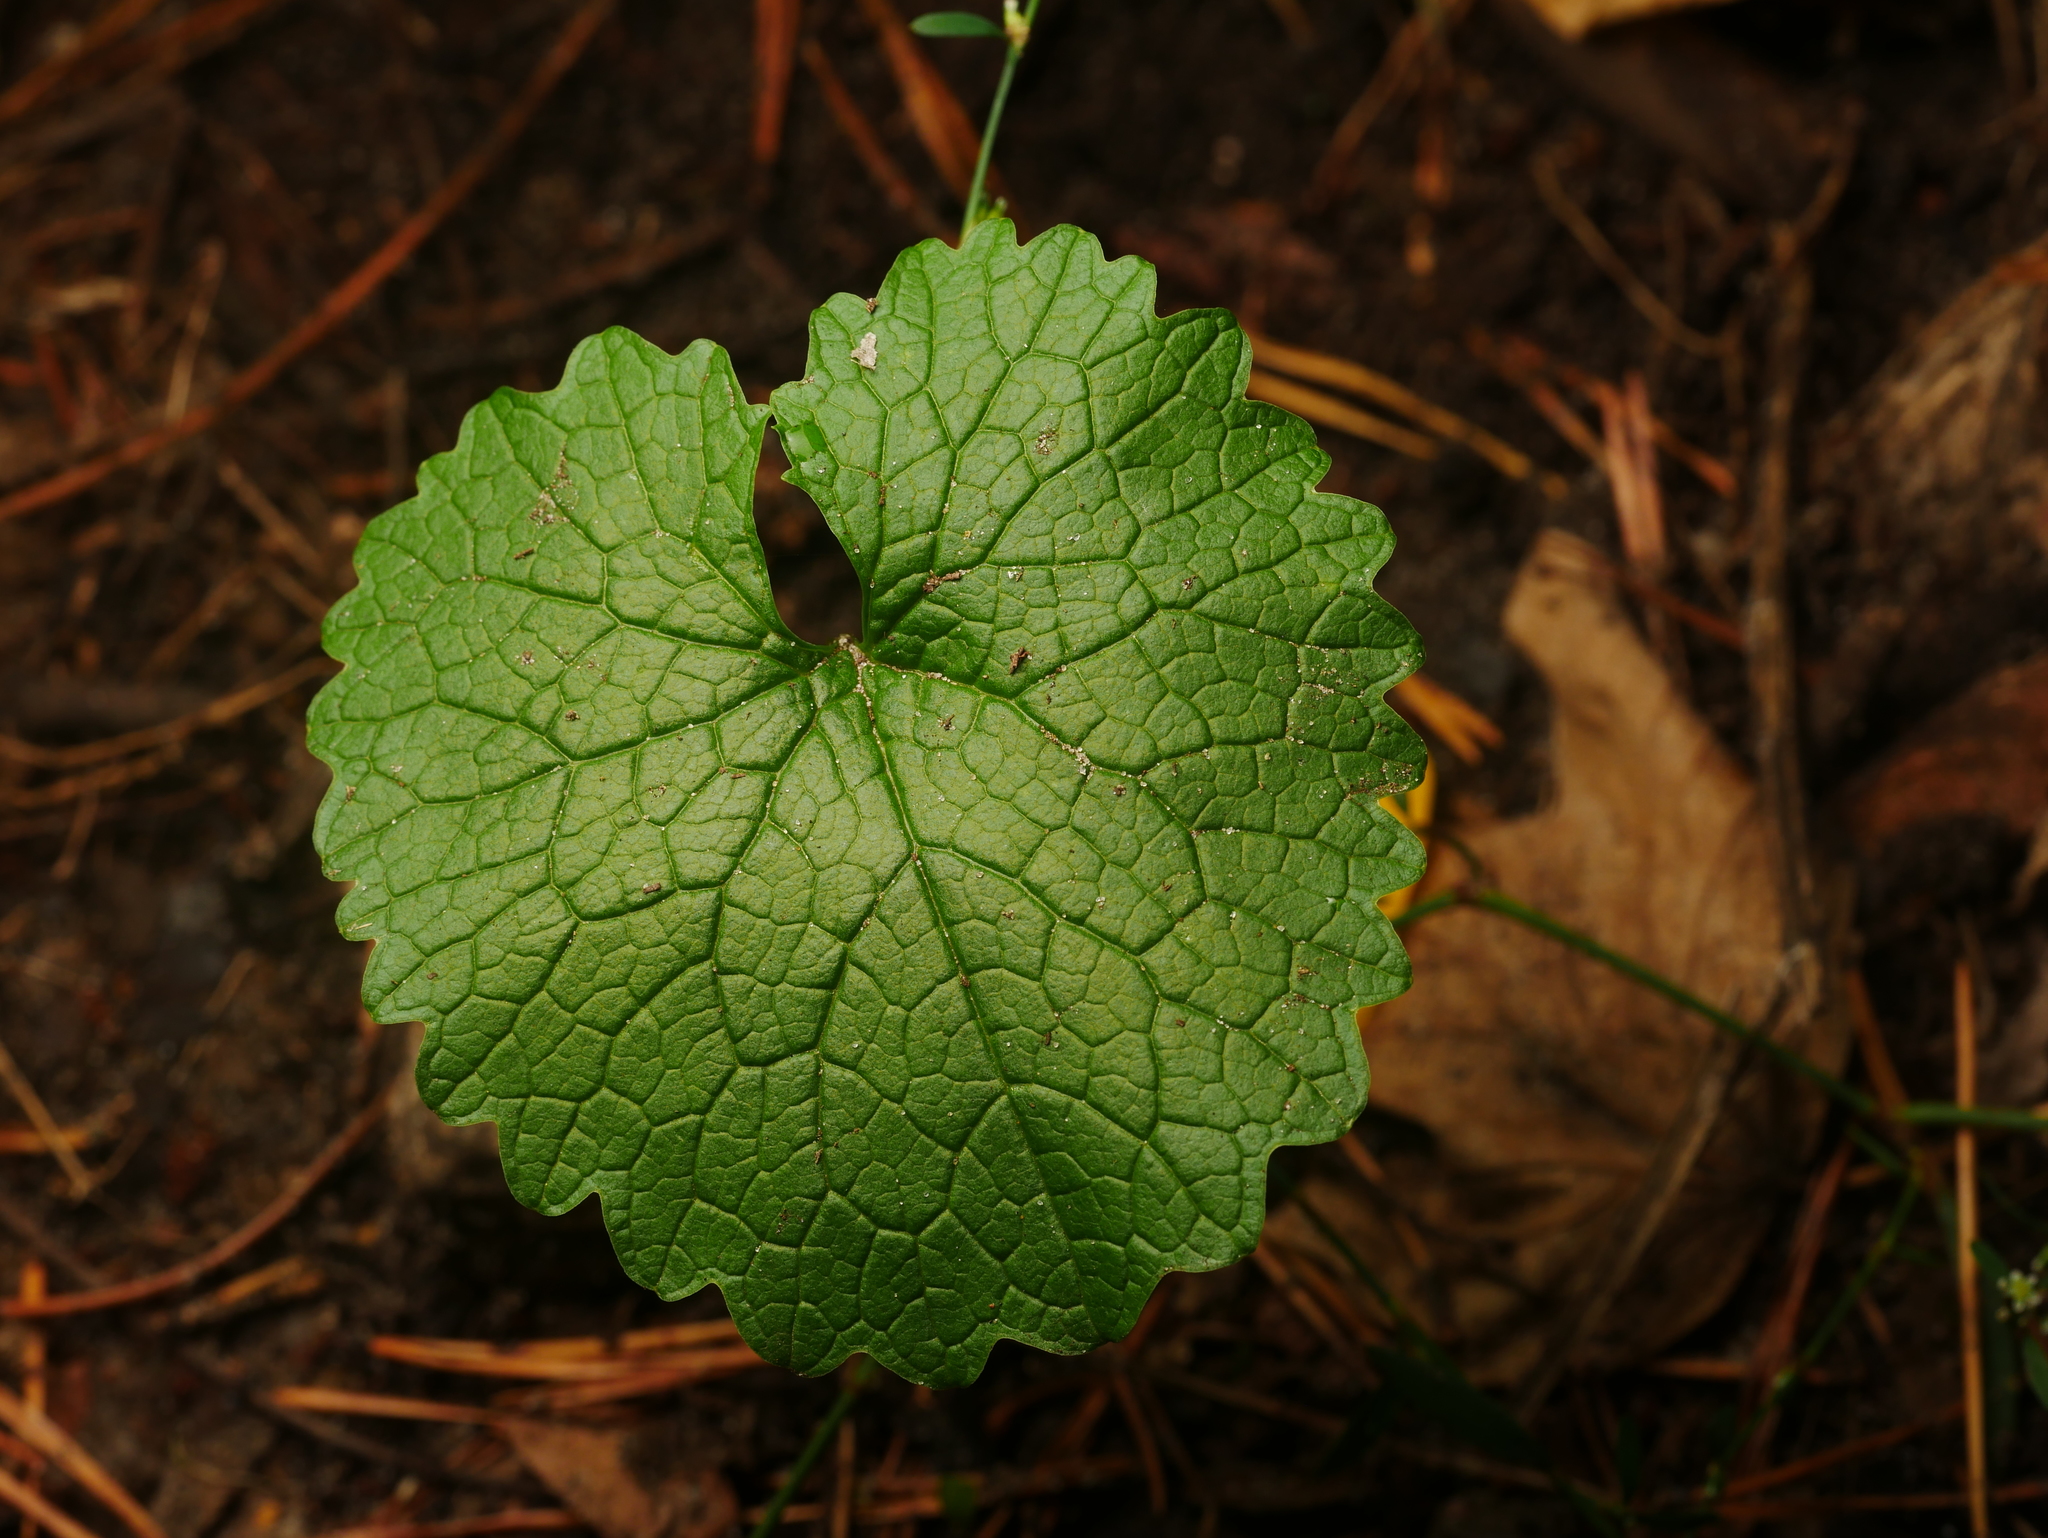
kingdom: Plantae
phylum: Tracheophyta
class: Magnoliopsida
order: Brassicales
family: Brassicaceae
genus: Alliaria
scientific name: Alliaria petiolata
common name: Garlic mustard
